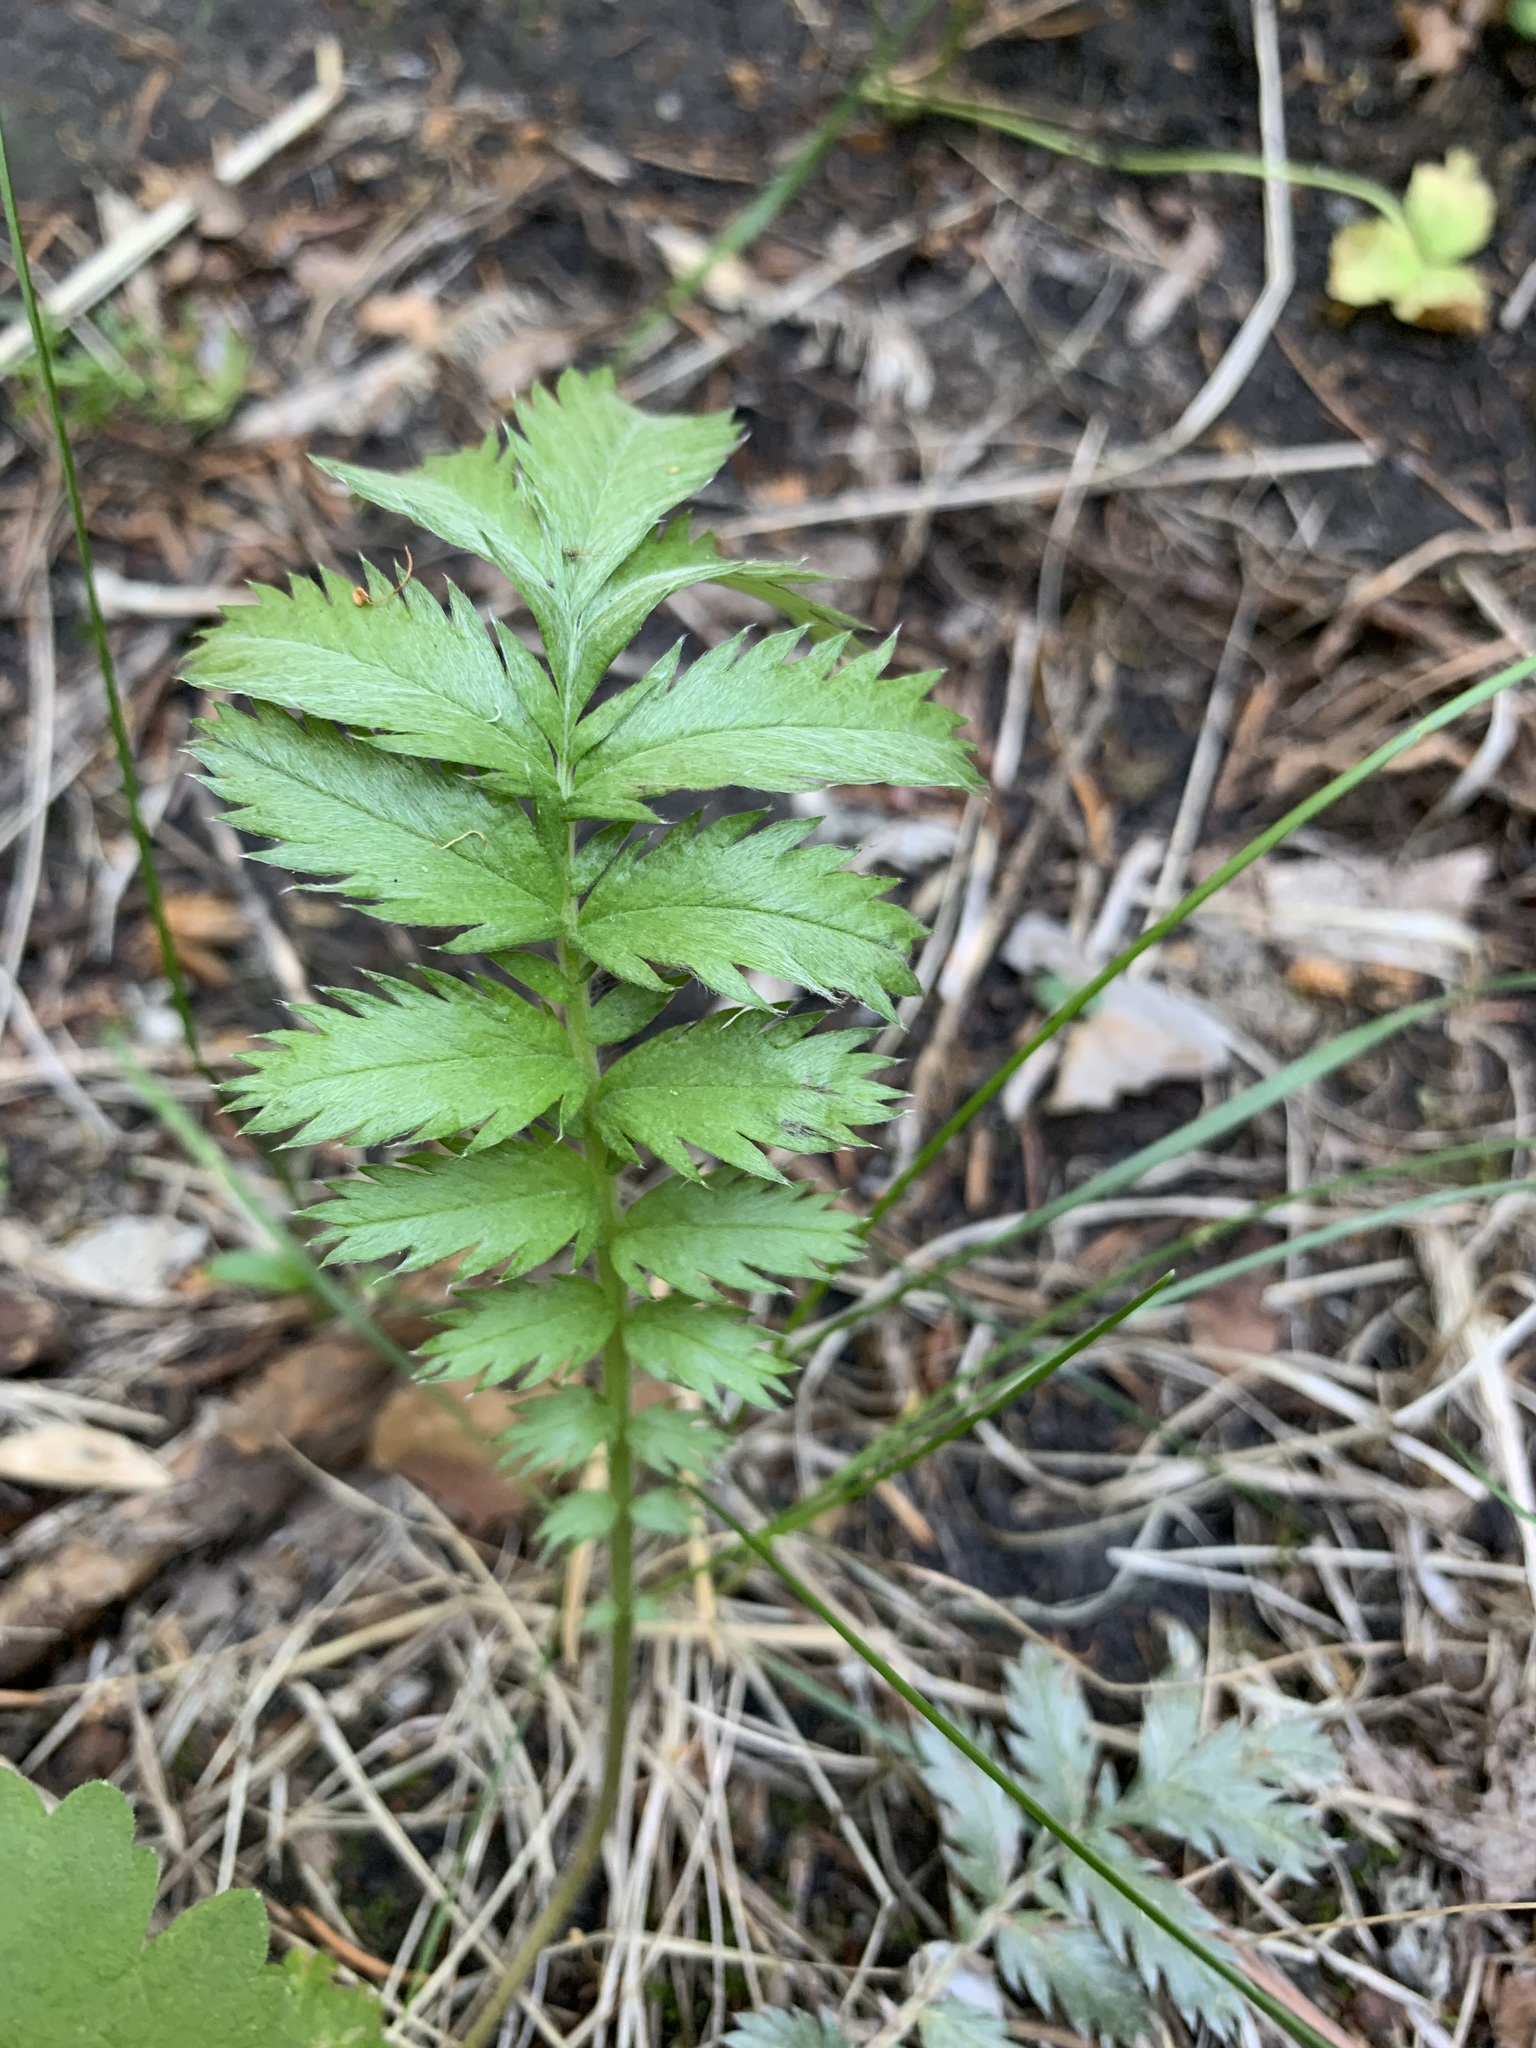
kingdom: Plantae
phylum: Tracheophyta
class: Magnoliopsida
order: Rosales
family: Rosaceae
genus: Argentina
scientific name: Argentina anserina
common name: Common silverweed
